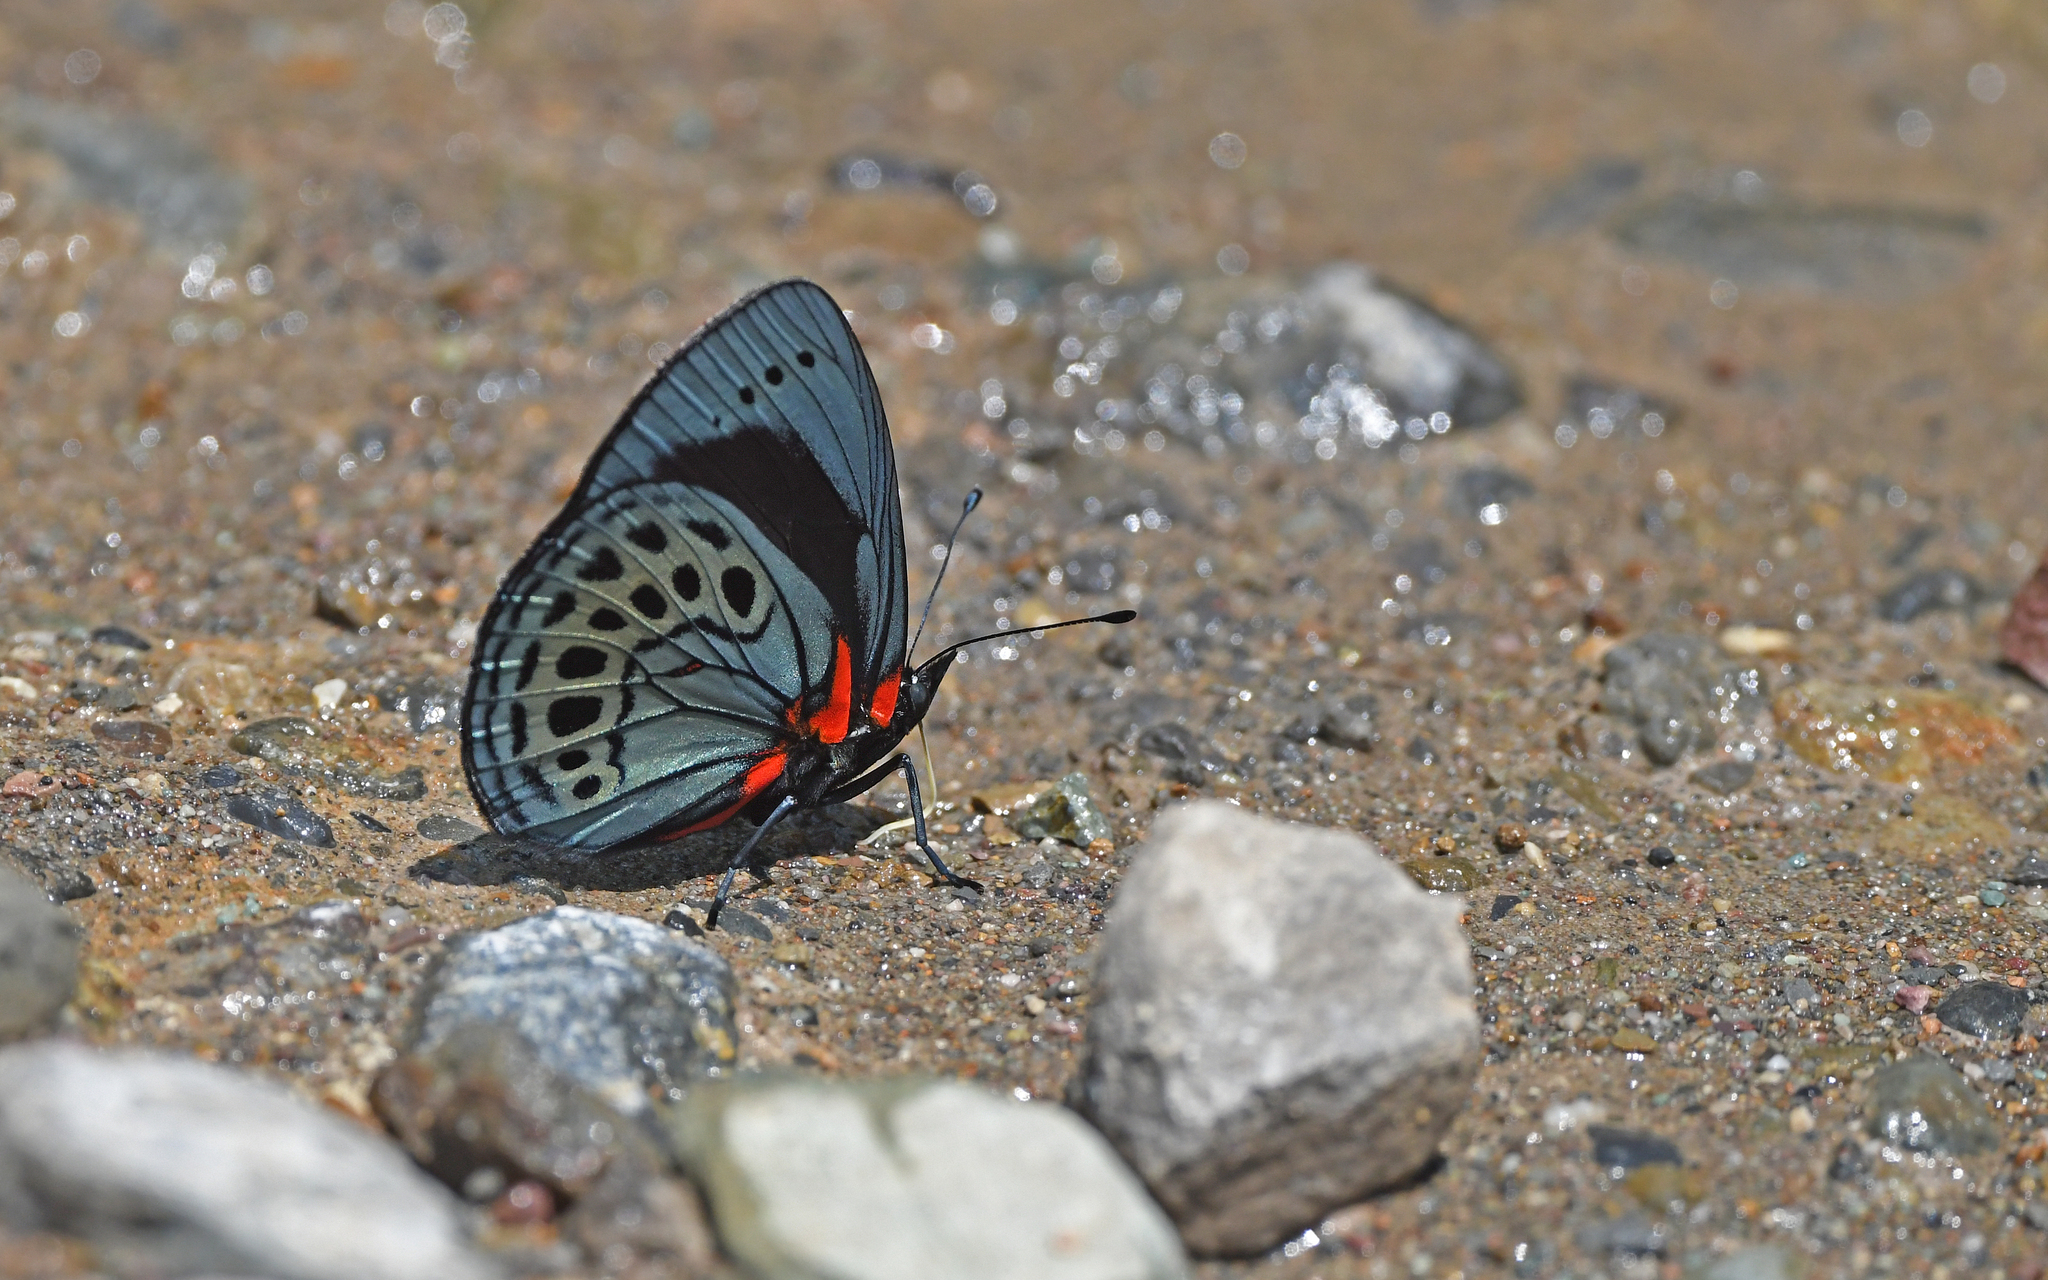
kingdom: Animalia
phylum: Arthropoda
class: Insecta
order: Lepidoptera
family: Nymphalidae
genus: Asterope
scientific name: Asterope leprieuri
